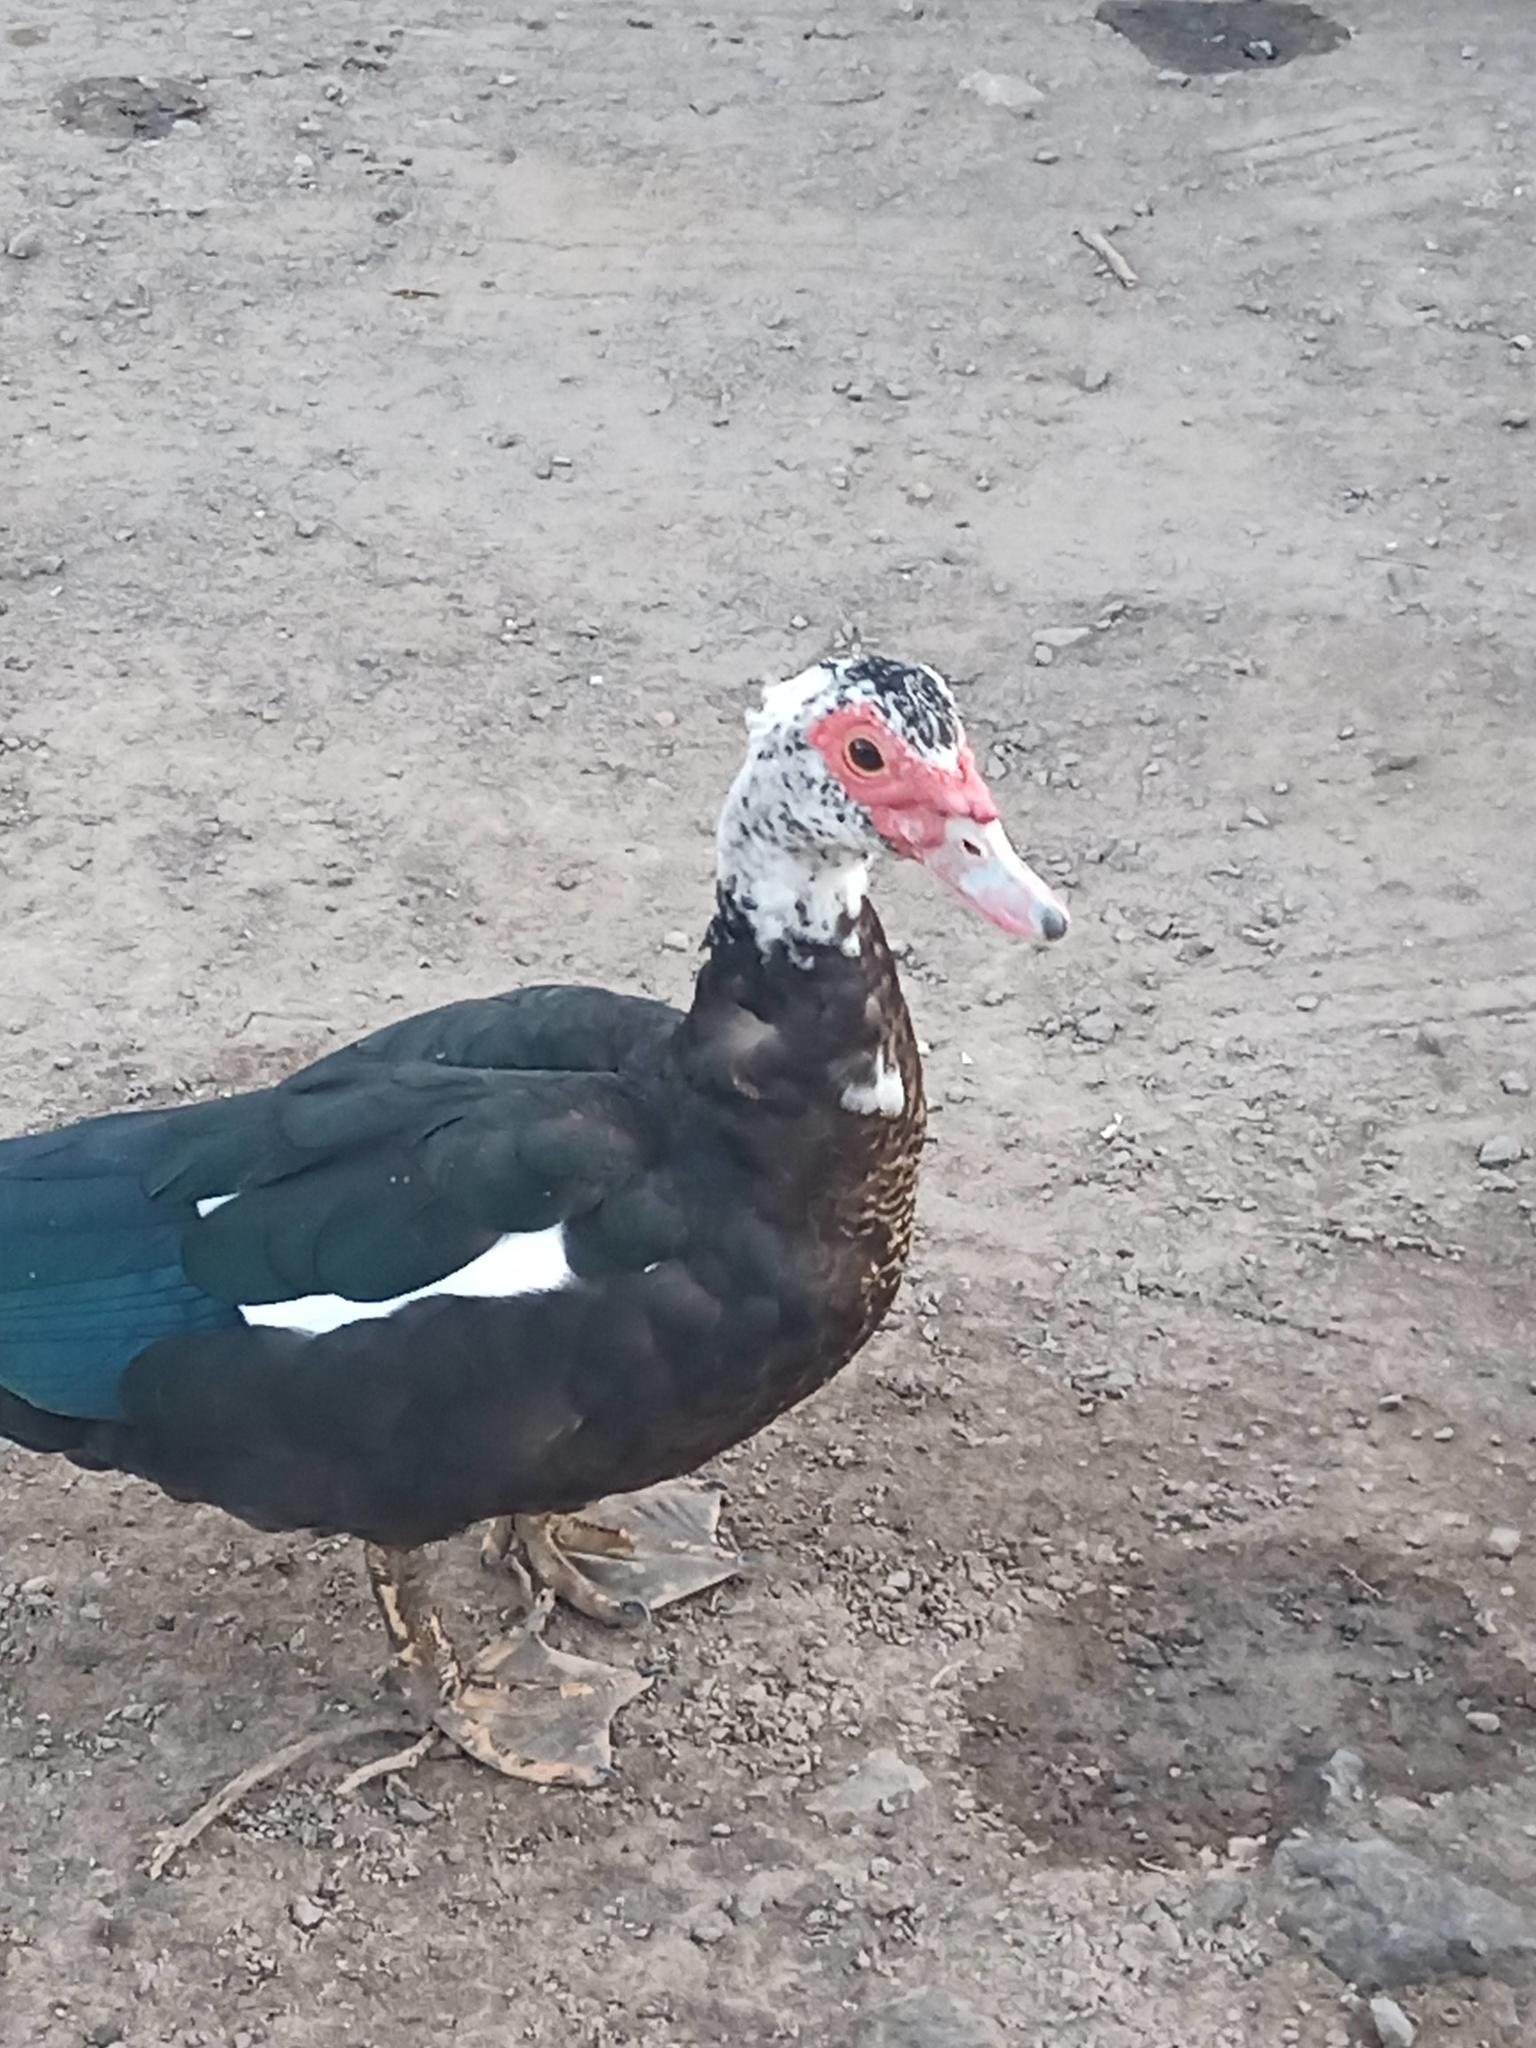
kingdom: Animalia
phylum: Chordata
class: Aves
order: Anseriformes
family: Anatidae
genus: Cairina
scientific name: Cairina moschata
